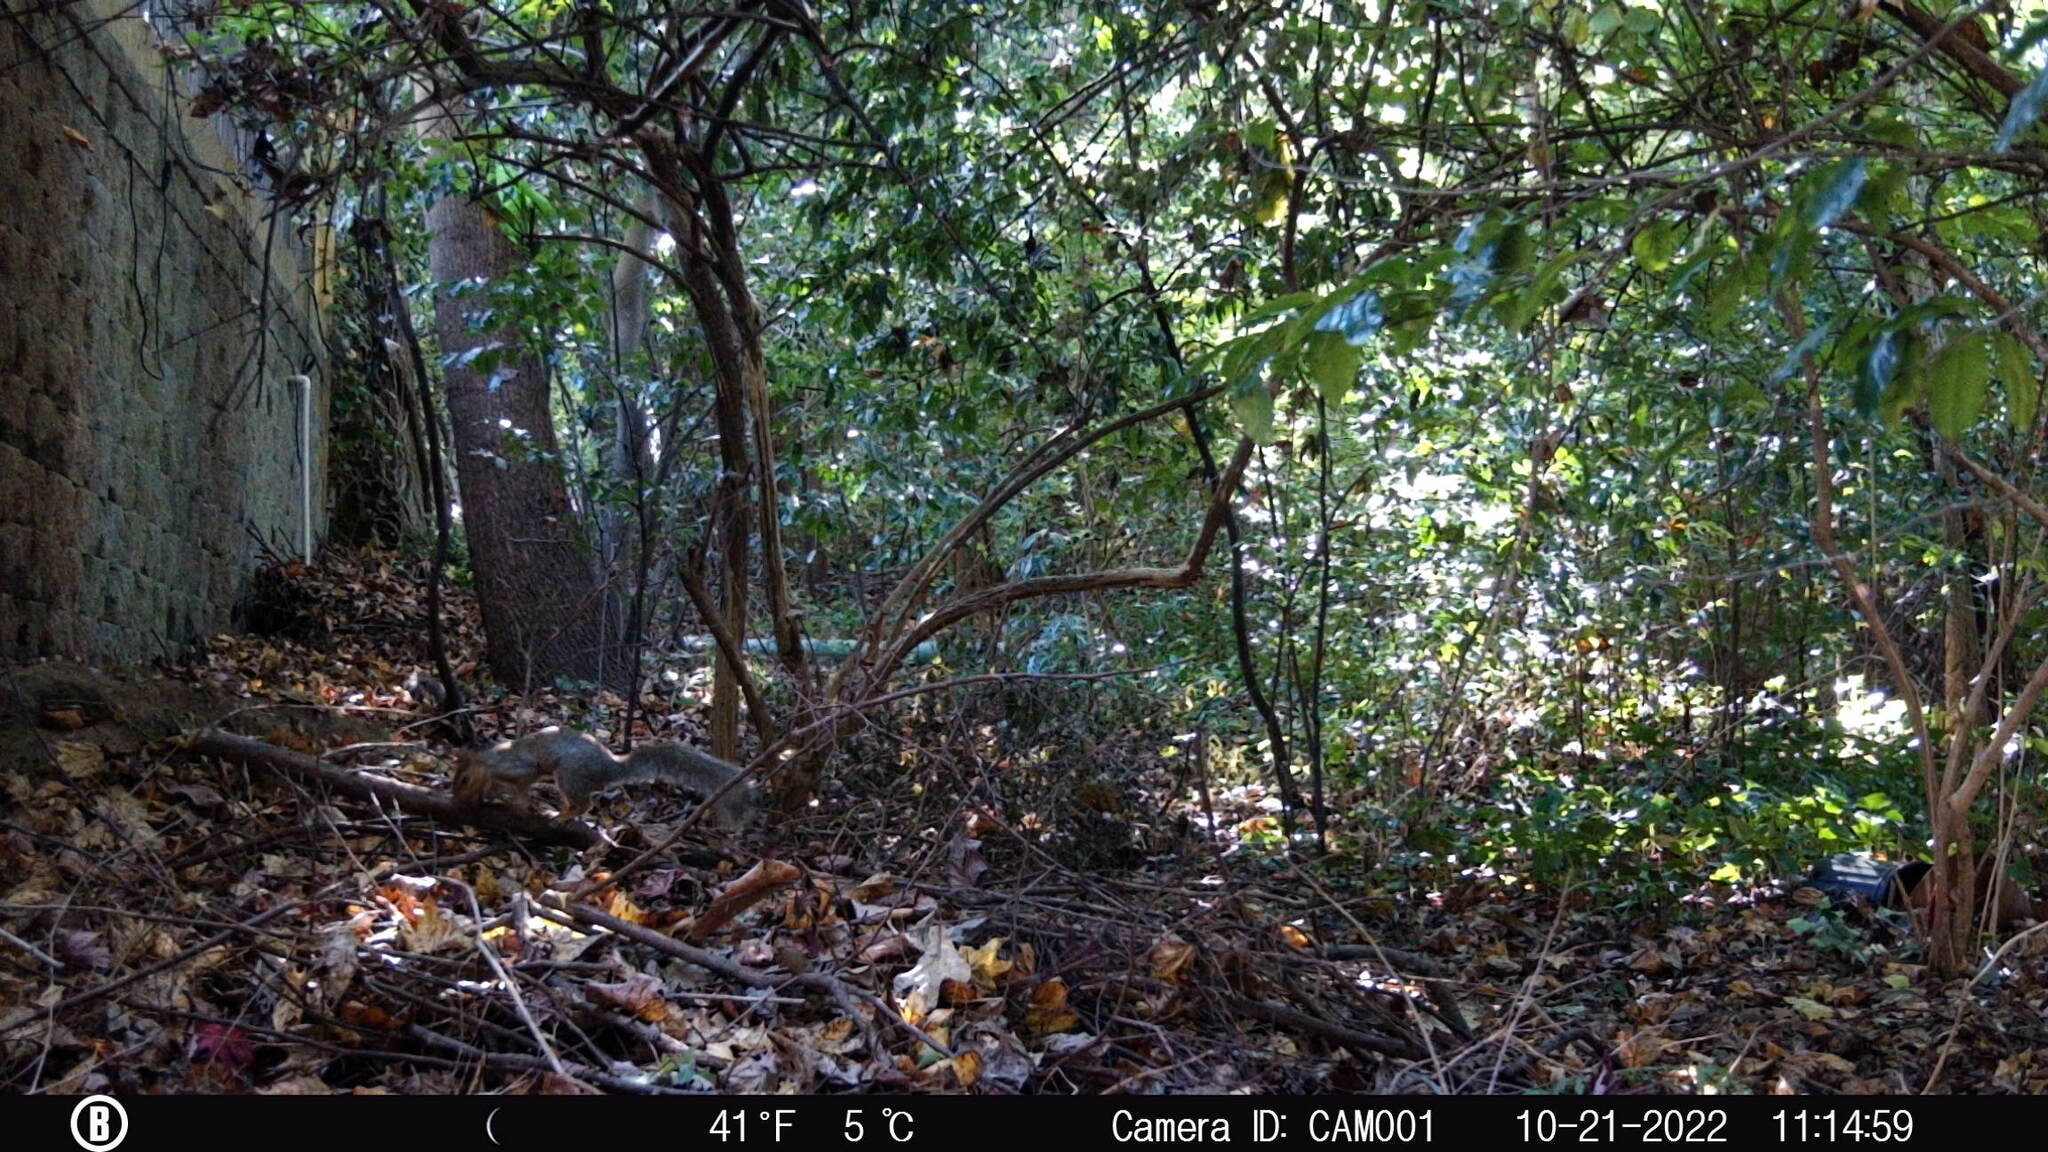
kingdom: Animalia
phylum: Chordata
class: Mammalia
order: Rodentia
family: Sciuridae
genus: Sciurus
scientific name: Sciurus carolinensis
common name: Eastern gray squirrel
